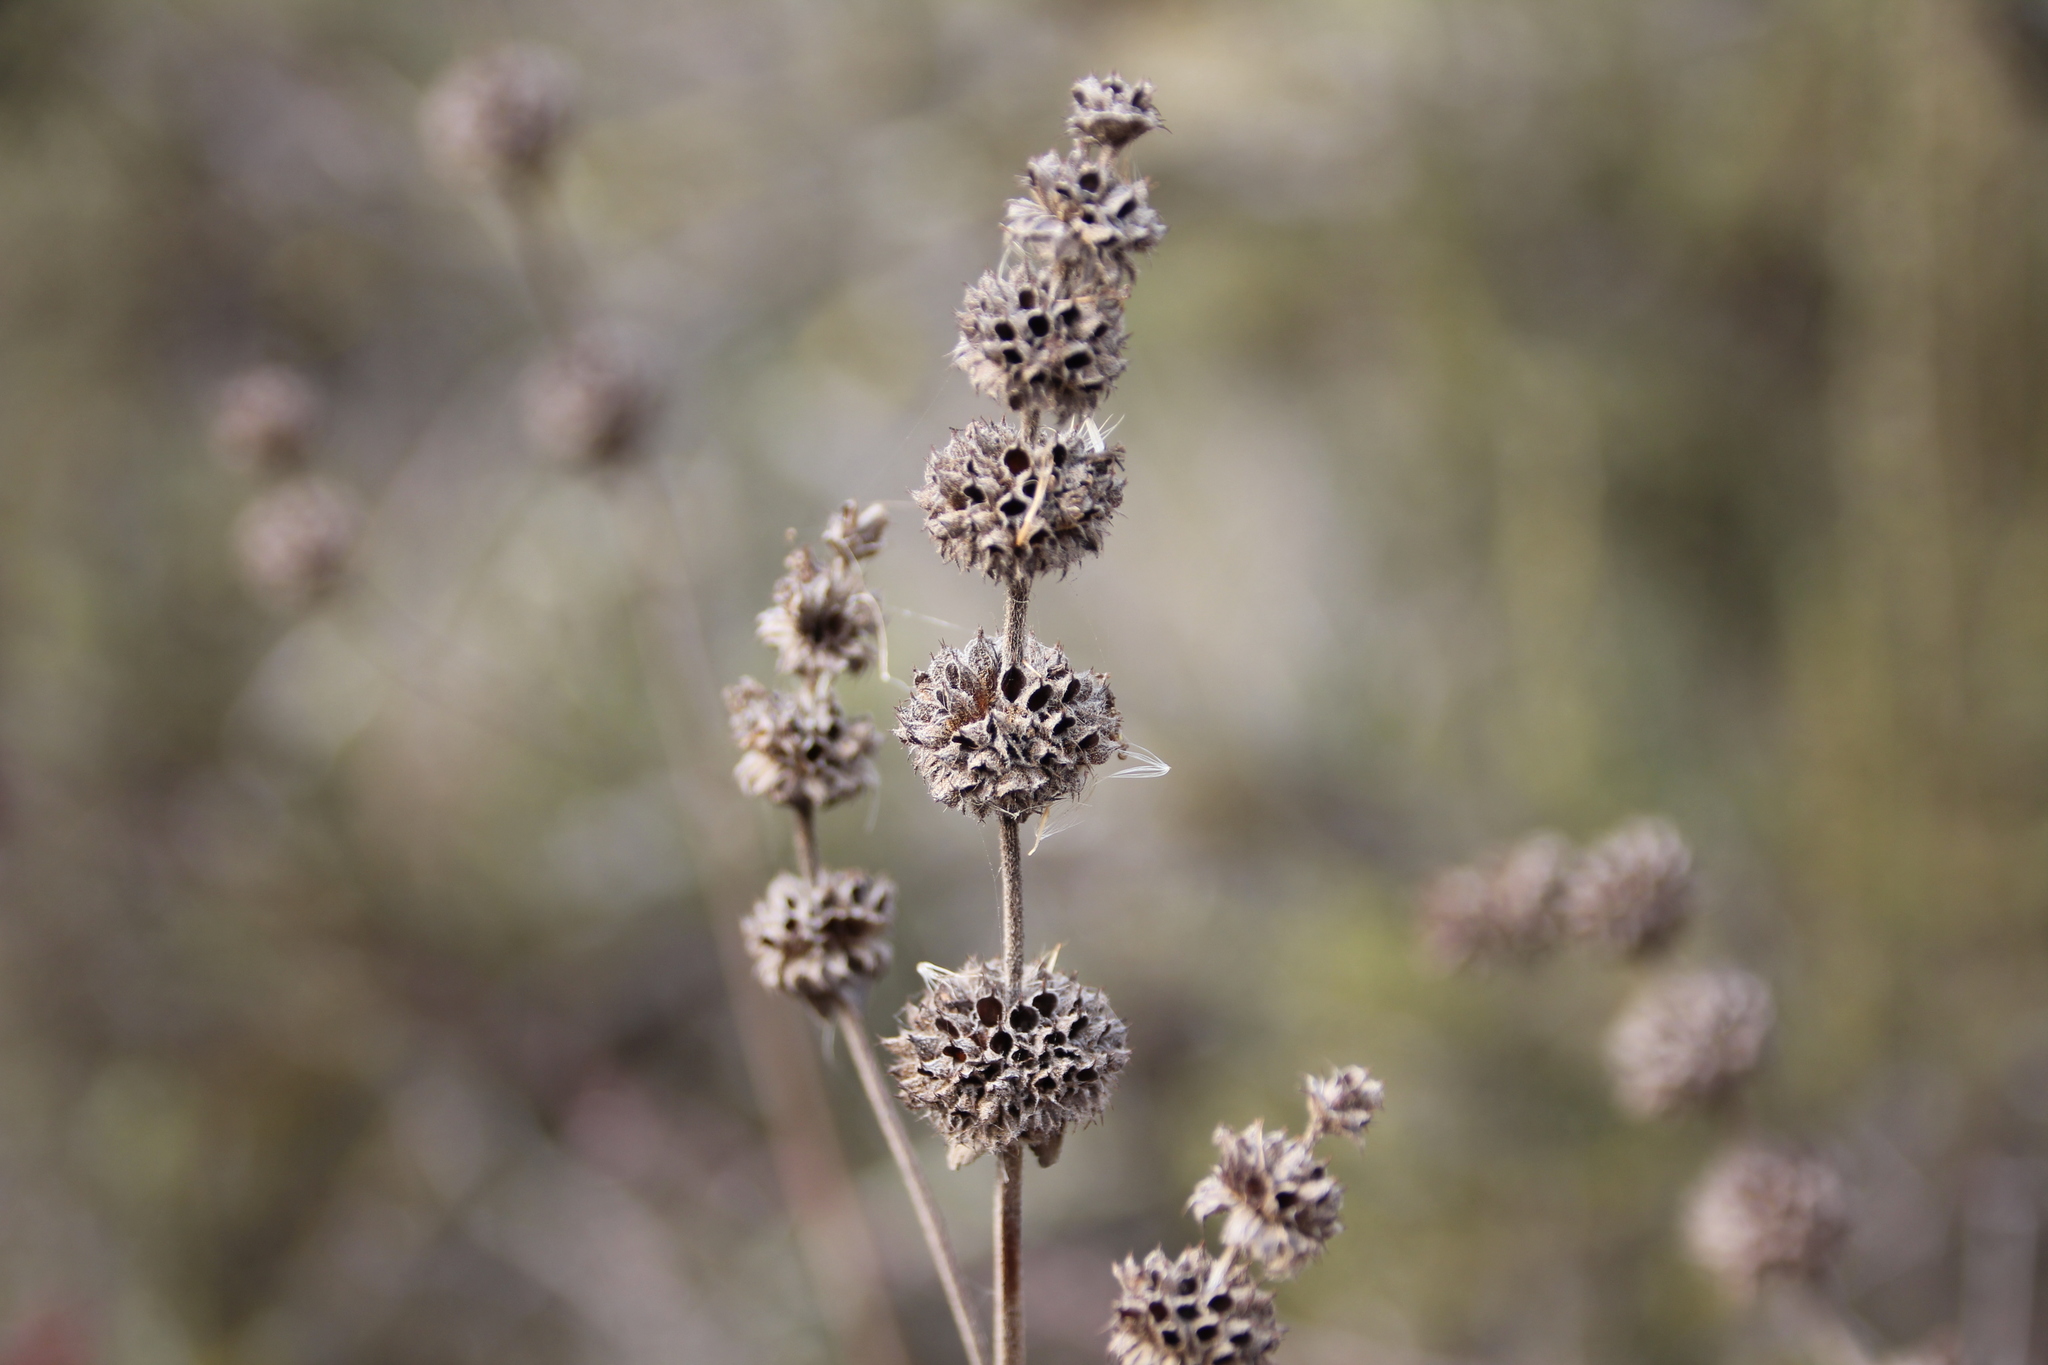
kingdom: Plantae
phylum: Tracheophyta
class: Magnoliopsida
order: Caryophyllales
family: Polygonaceae
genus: Eriogonum
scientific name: Eriogonum fasciculatum
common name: California wild buckwheat
